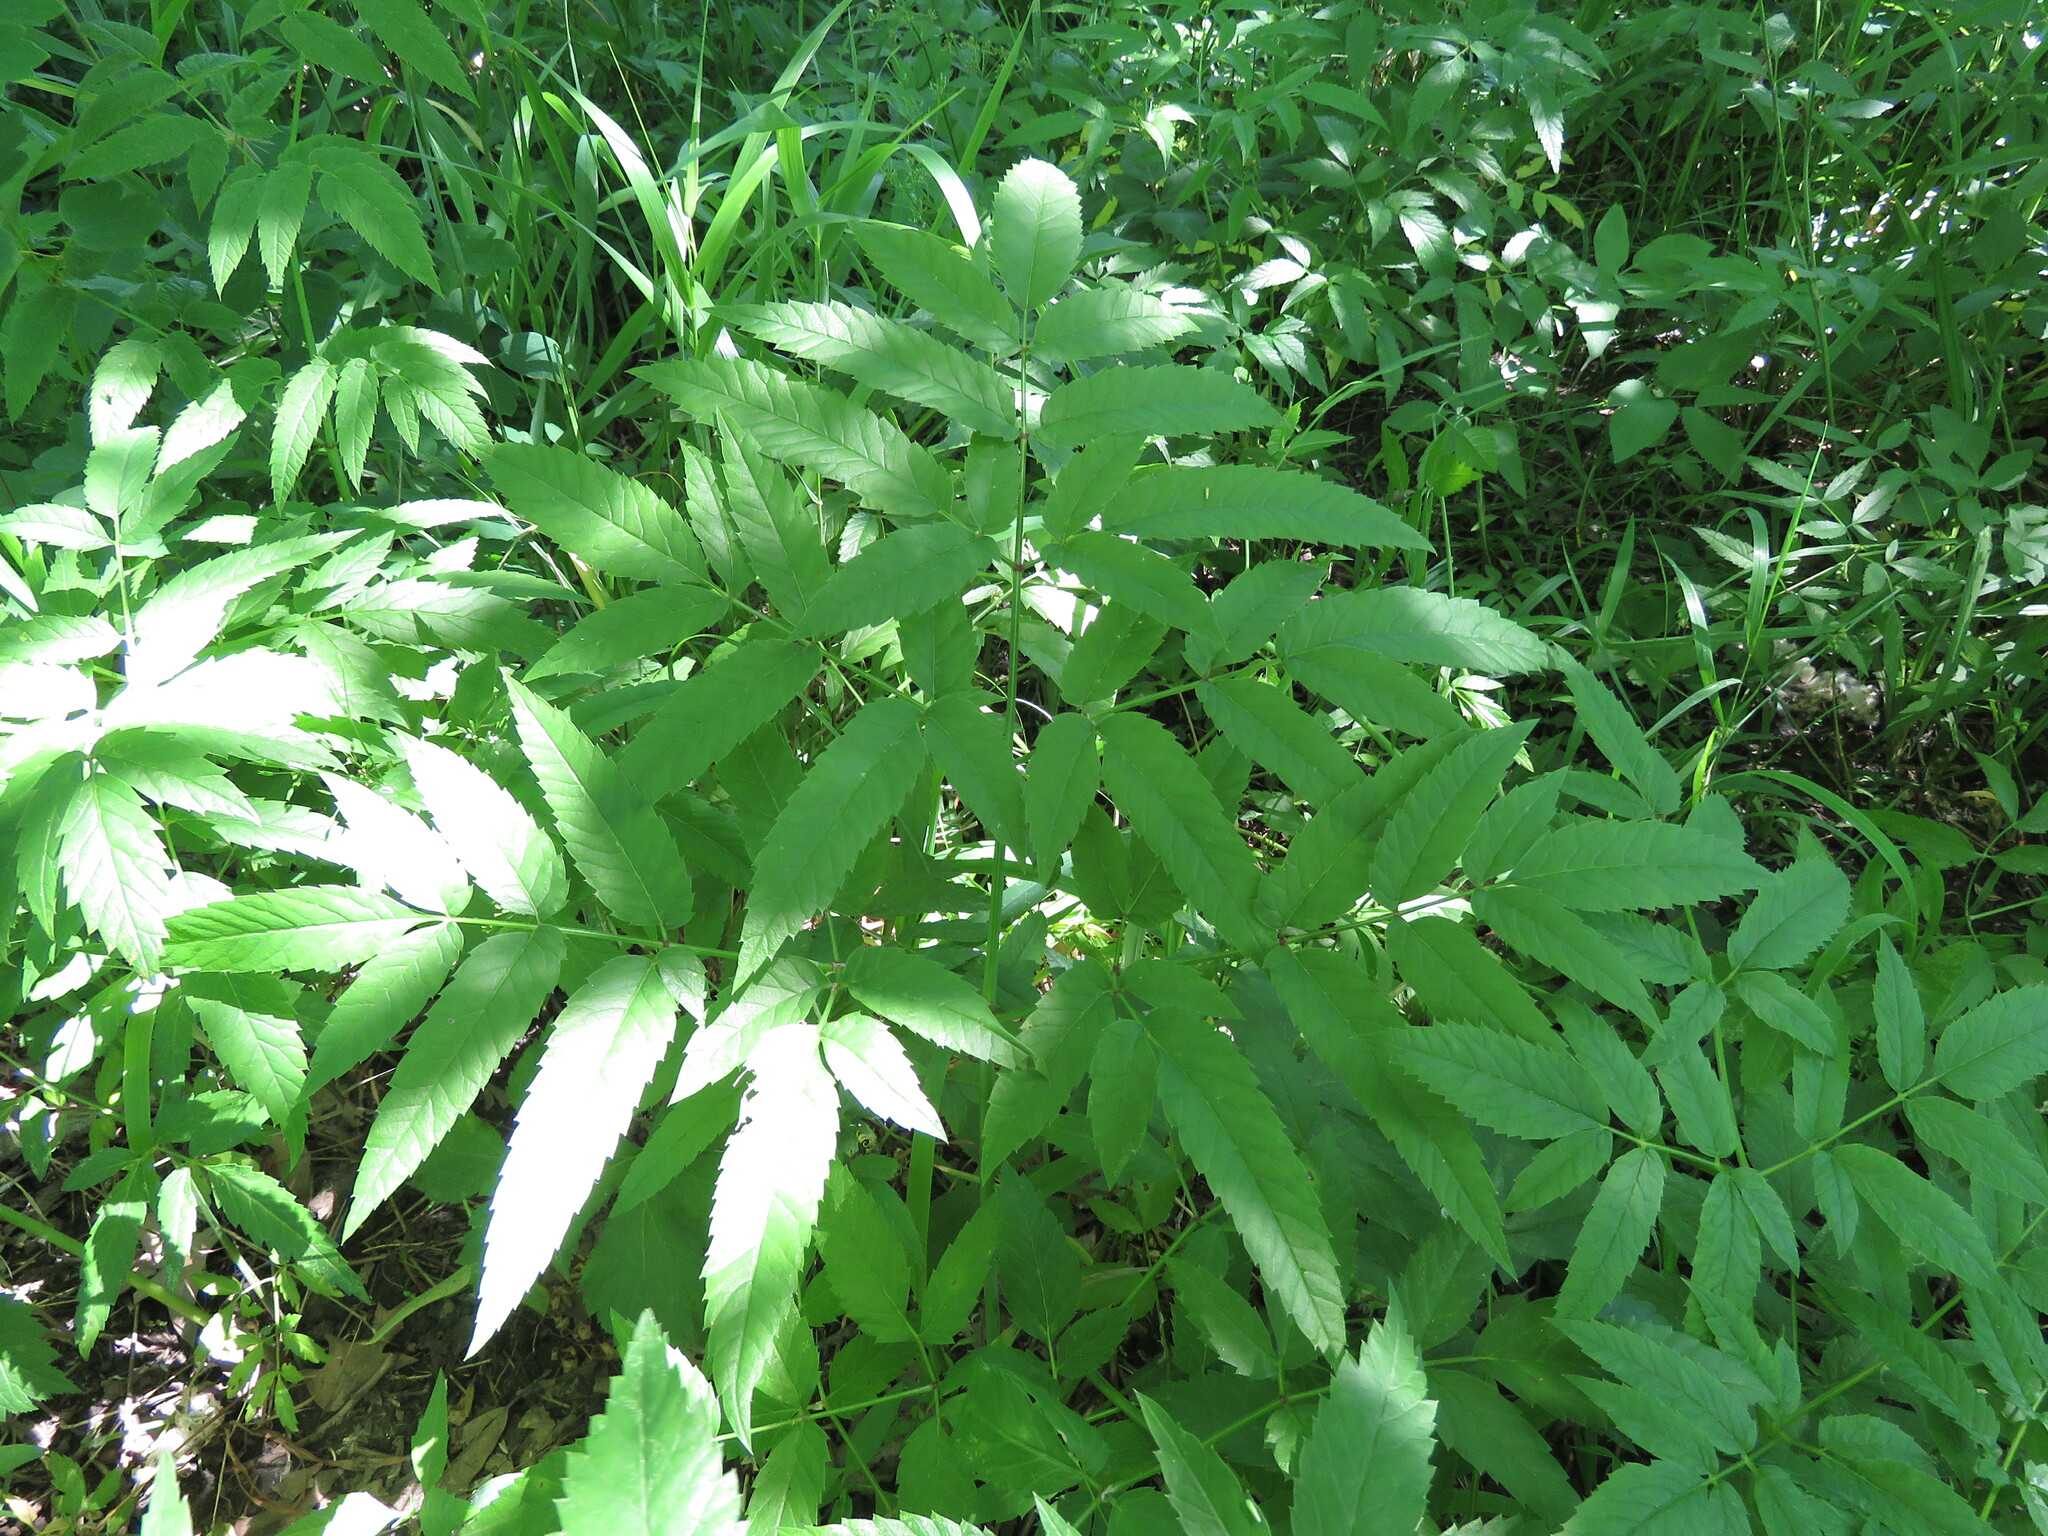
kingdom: Plantae
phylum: Tracheophyta
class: Magnoliopsida
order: Apiales
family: Apiaceae
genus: Cicuta
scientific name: Cicuta maculata
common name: Spotted cowbane
